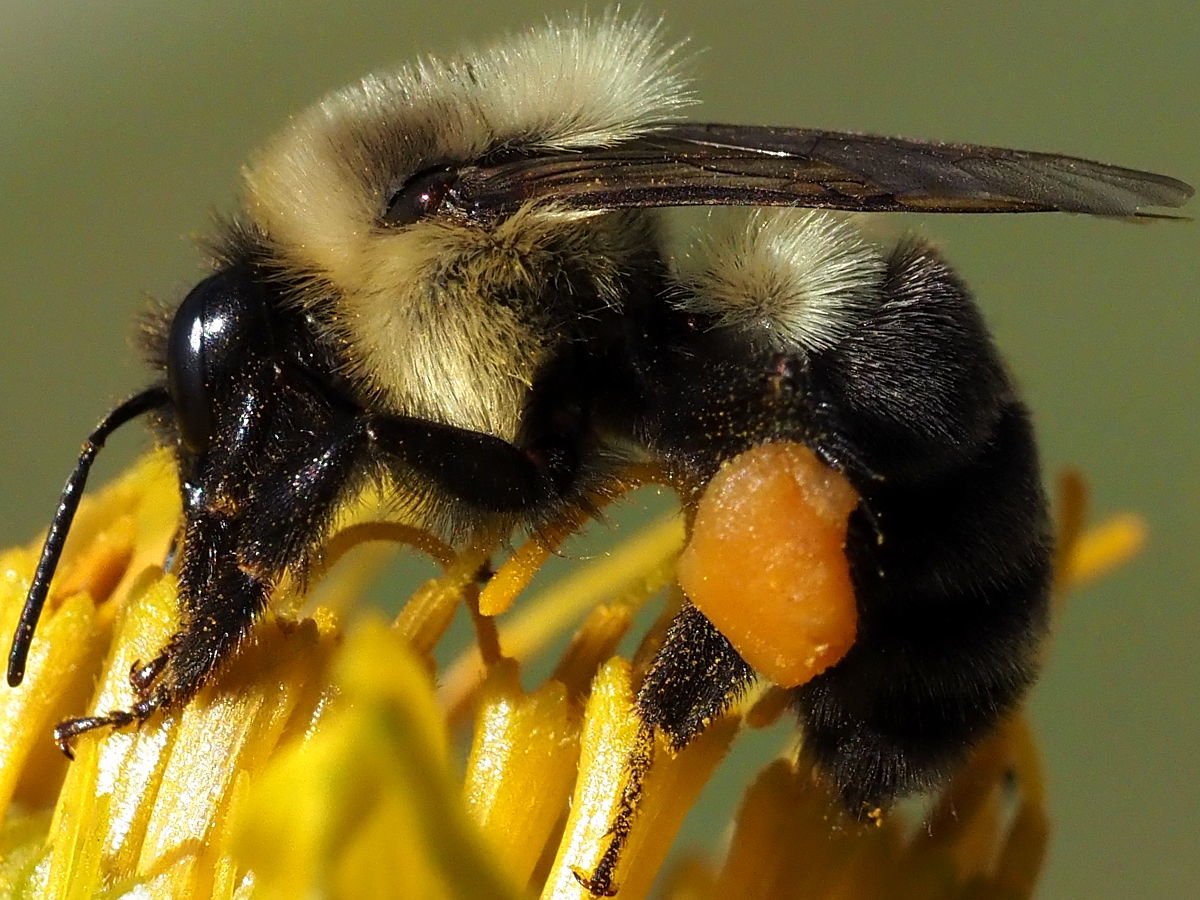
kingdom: Animalia
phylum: Arthropoda
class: Insecta
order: Hymenoptera
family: Apidae
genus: Bombus
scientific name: Bombus impatiens
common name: Common eastern bumble bee
